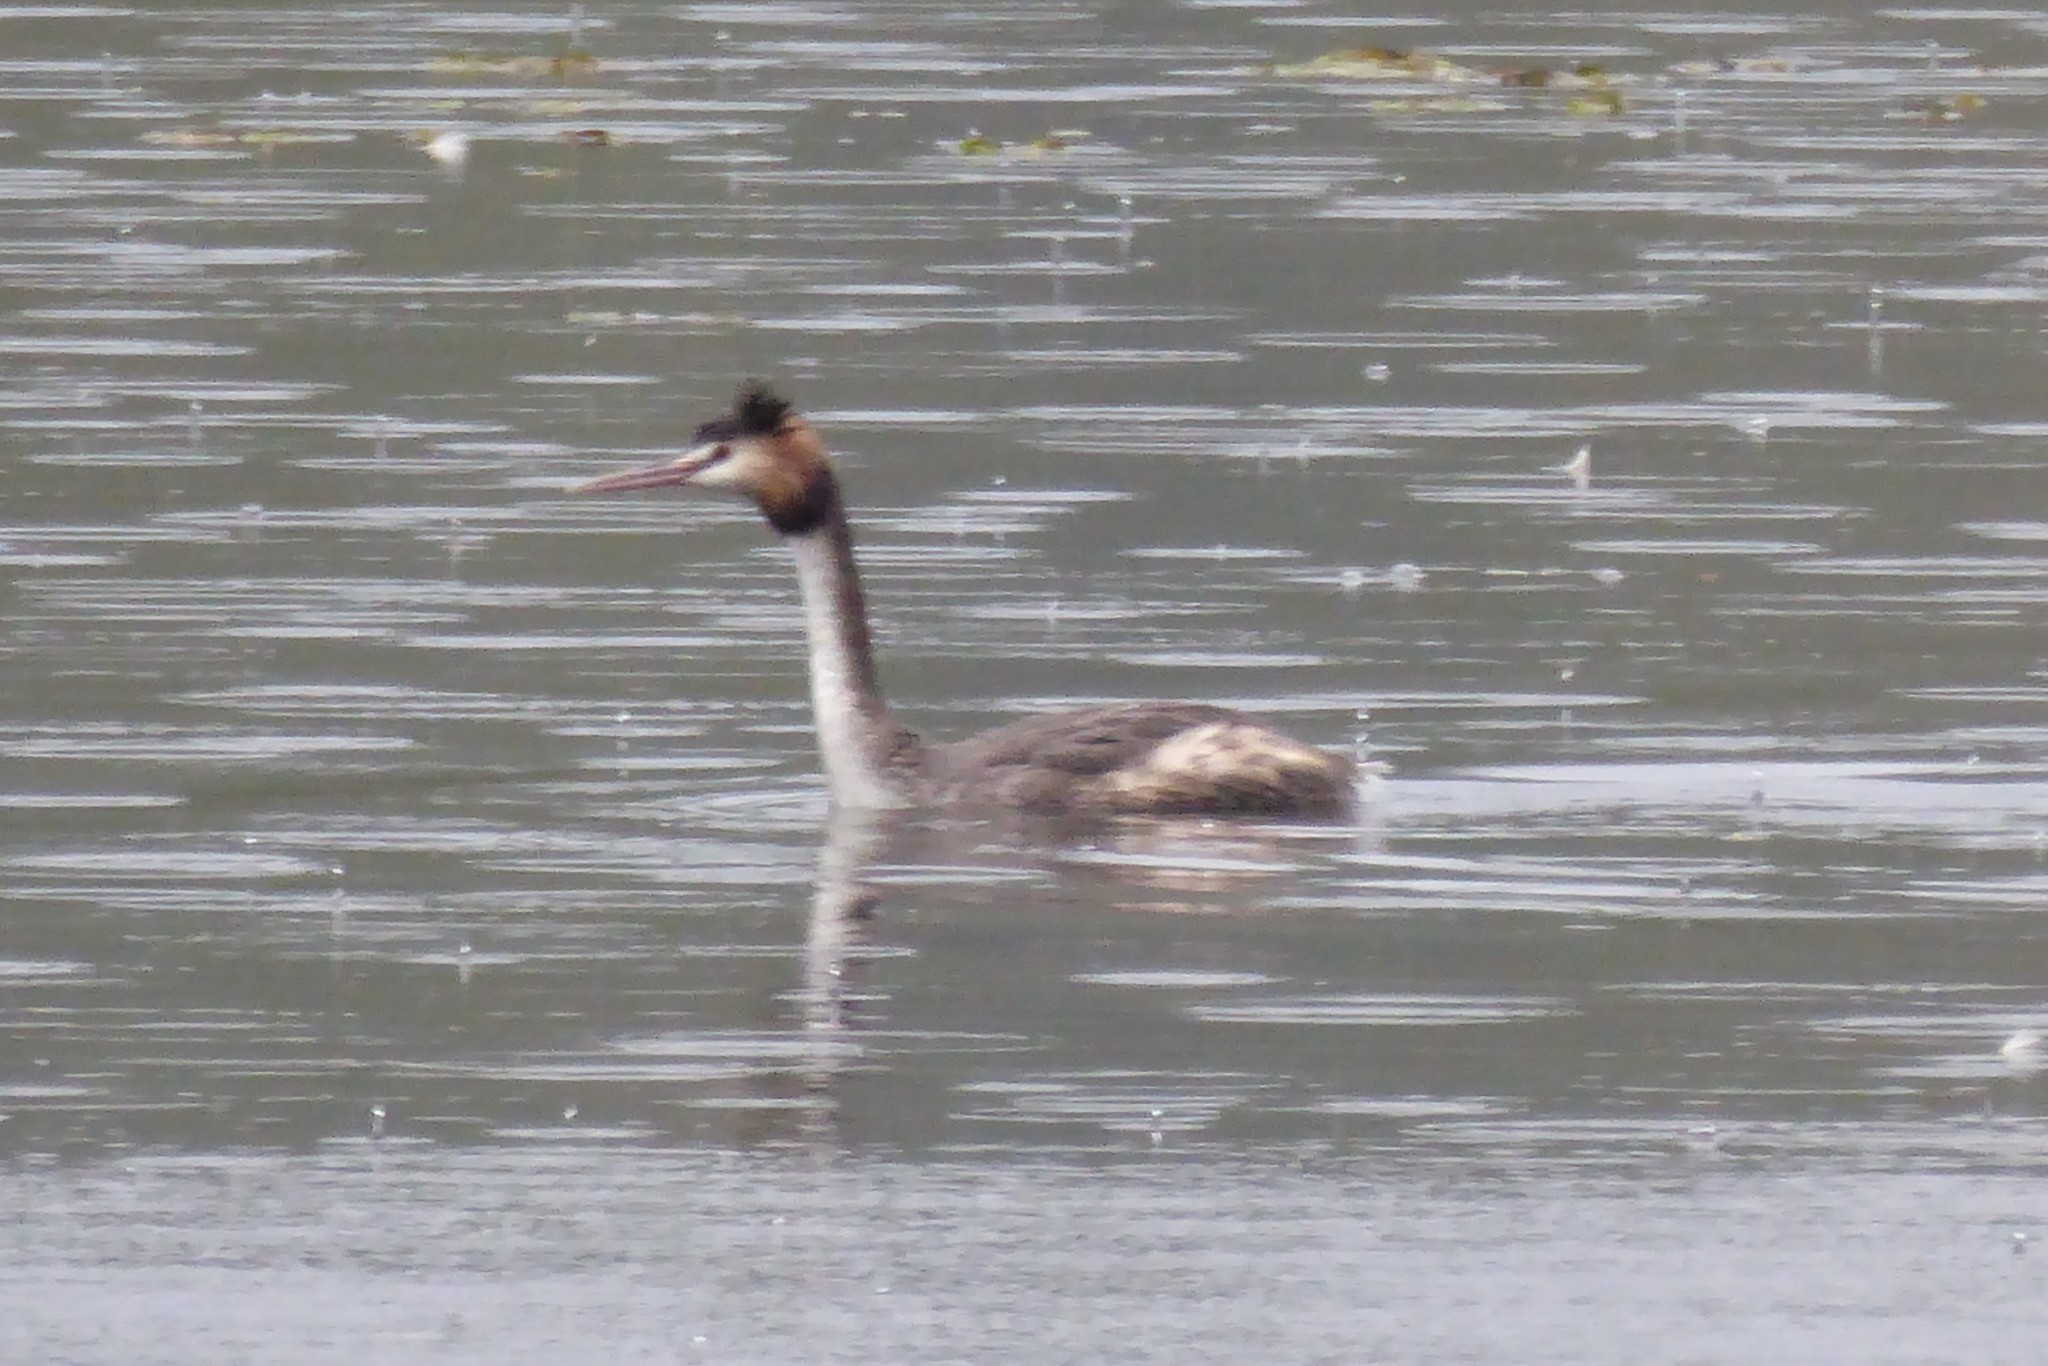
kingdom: Animalia
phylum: Chordata
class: Aves
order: Podicipediformes
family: Podicipedidae
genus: Podiceps
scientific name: Podiceps cristatus
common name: Great crested grebe
